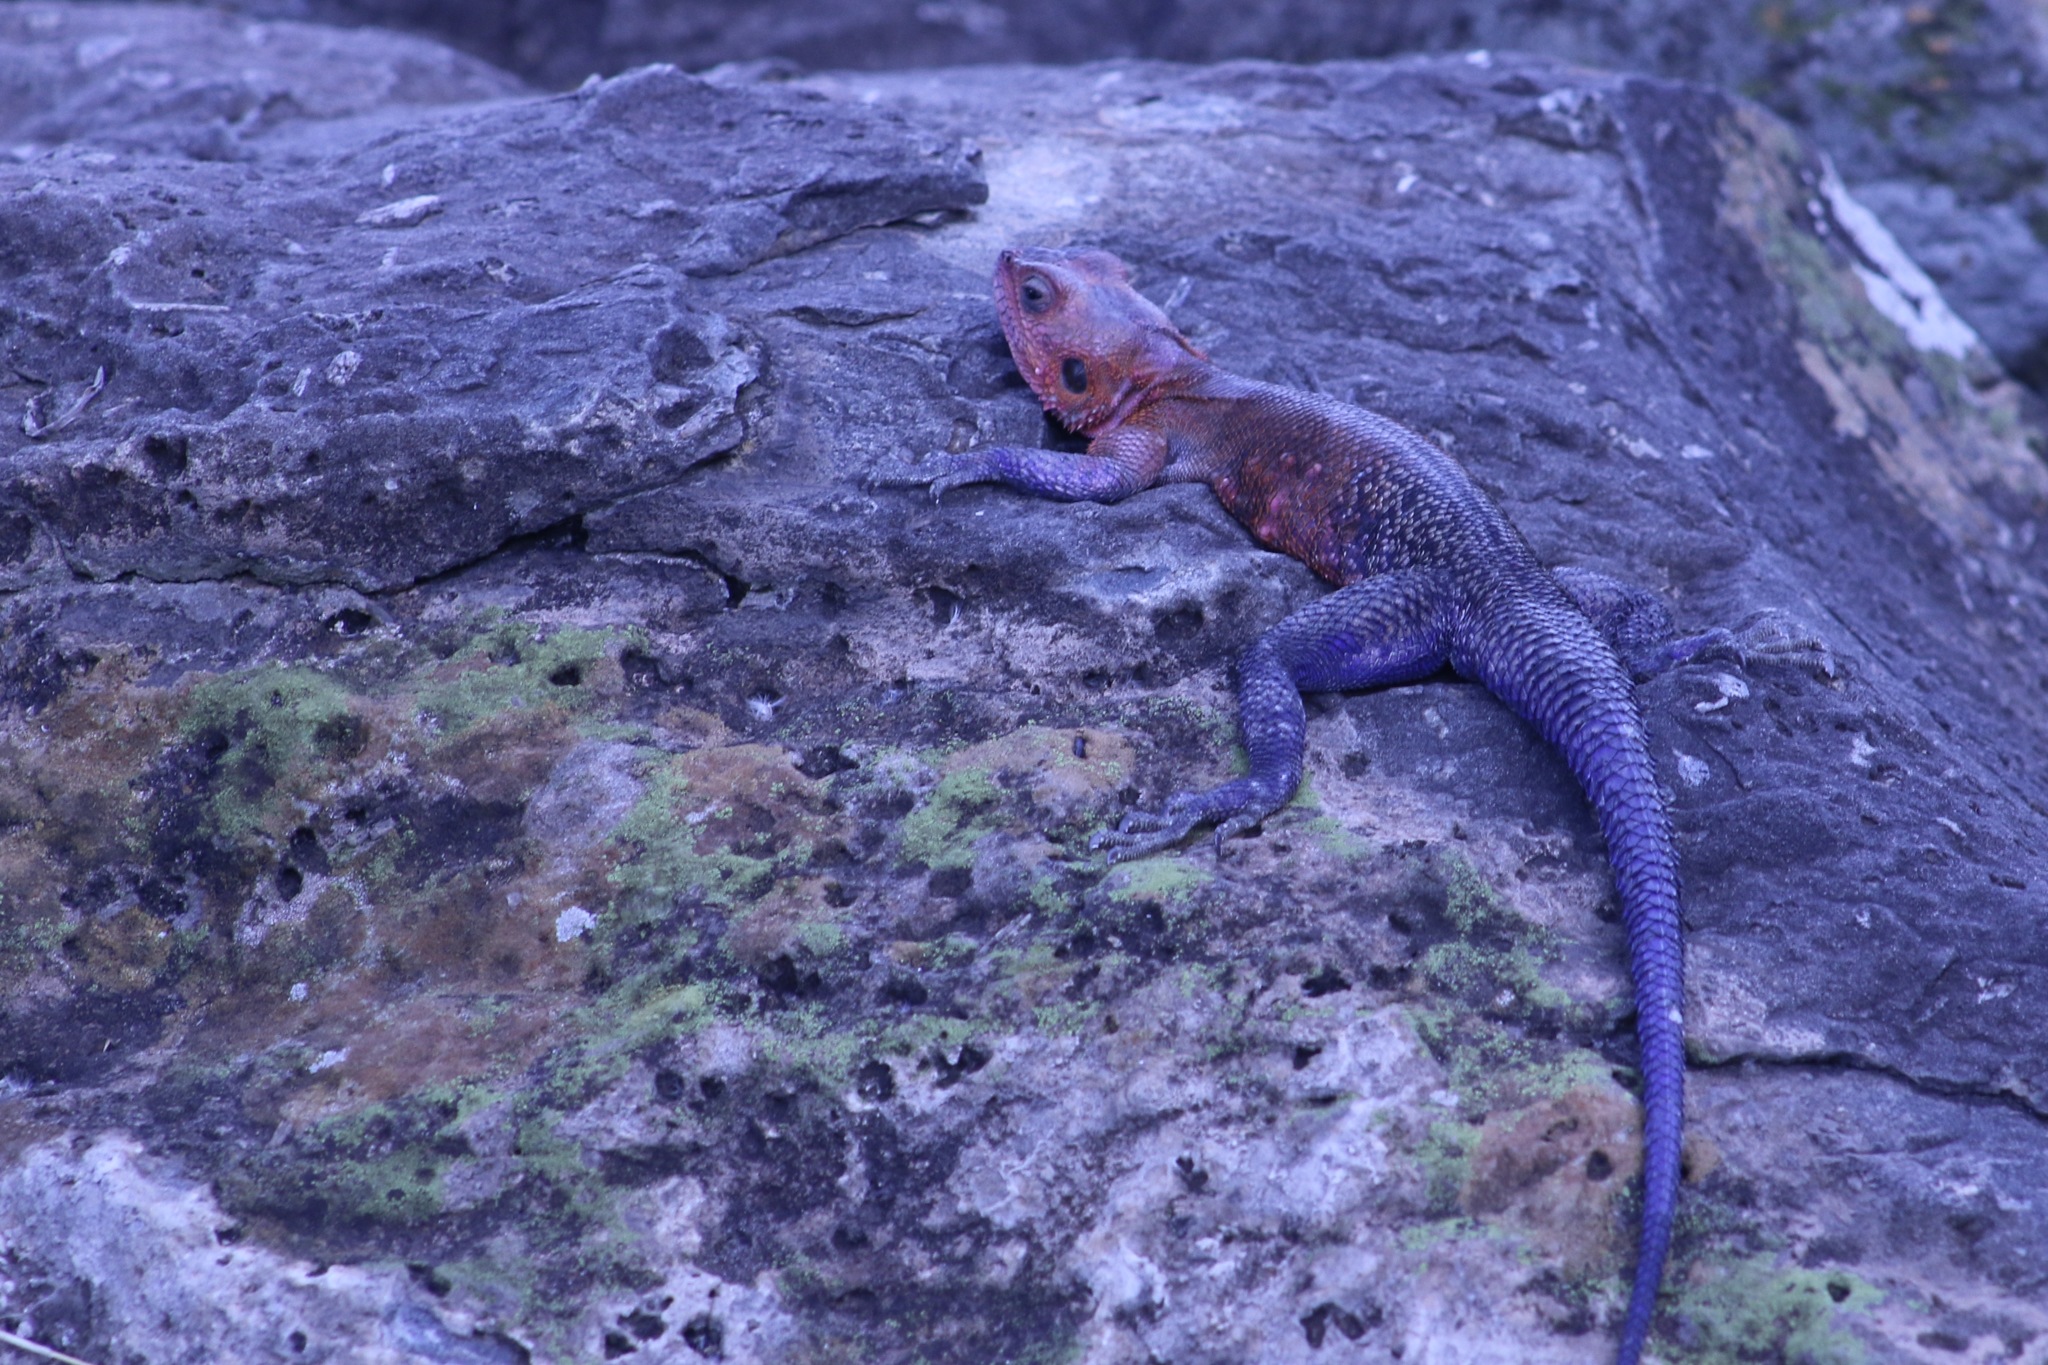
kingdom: Animalia
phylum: Chordata
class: Squamata
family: Agamidae
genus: Agama
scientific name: Agama mwanzae
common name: Mwanza flat-headed agama
